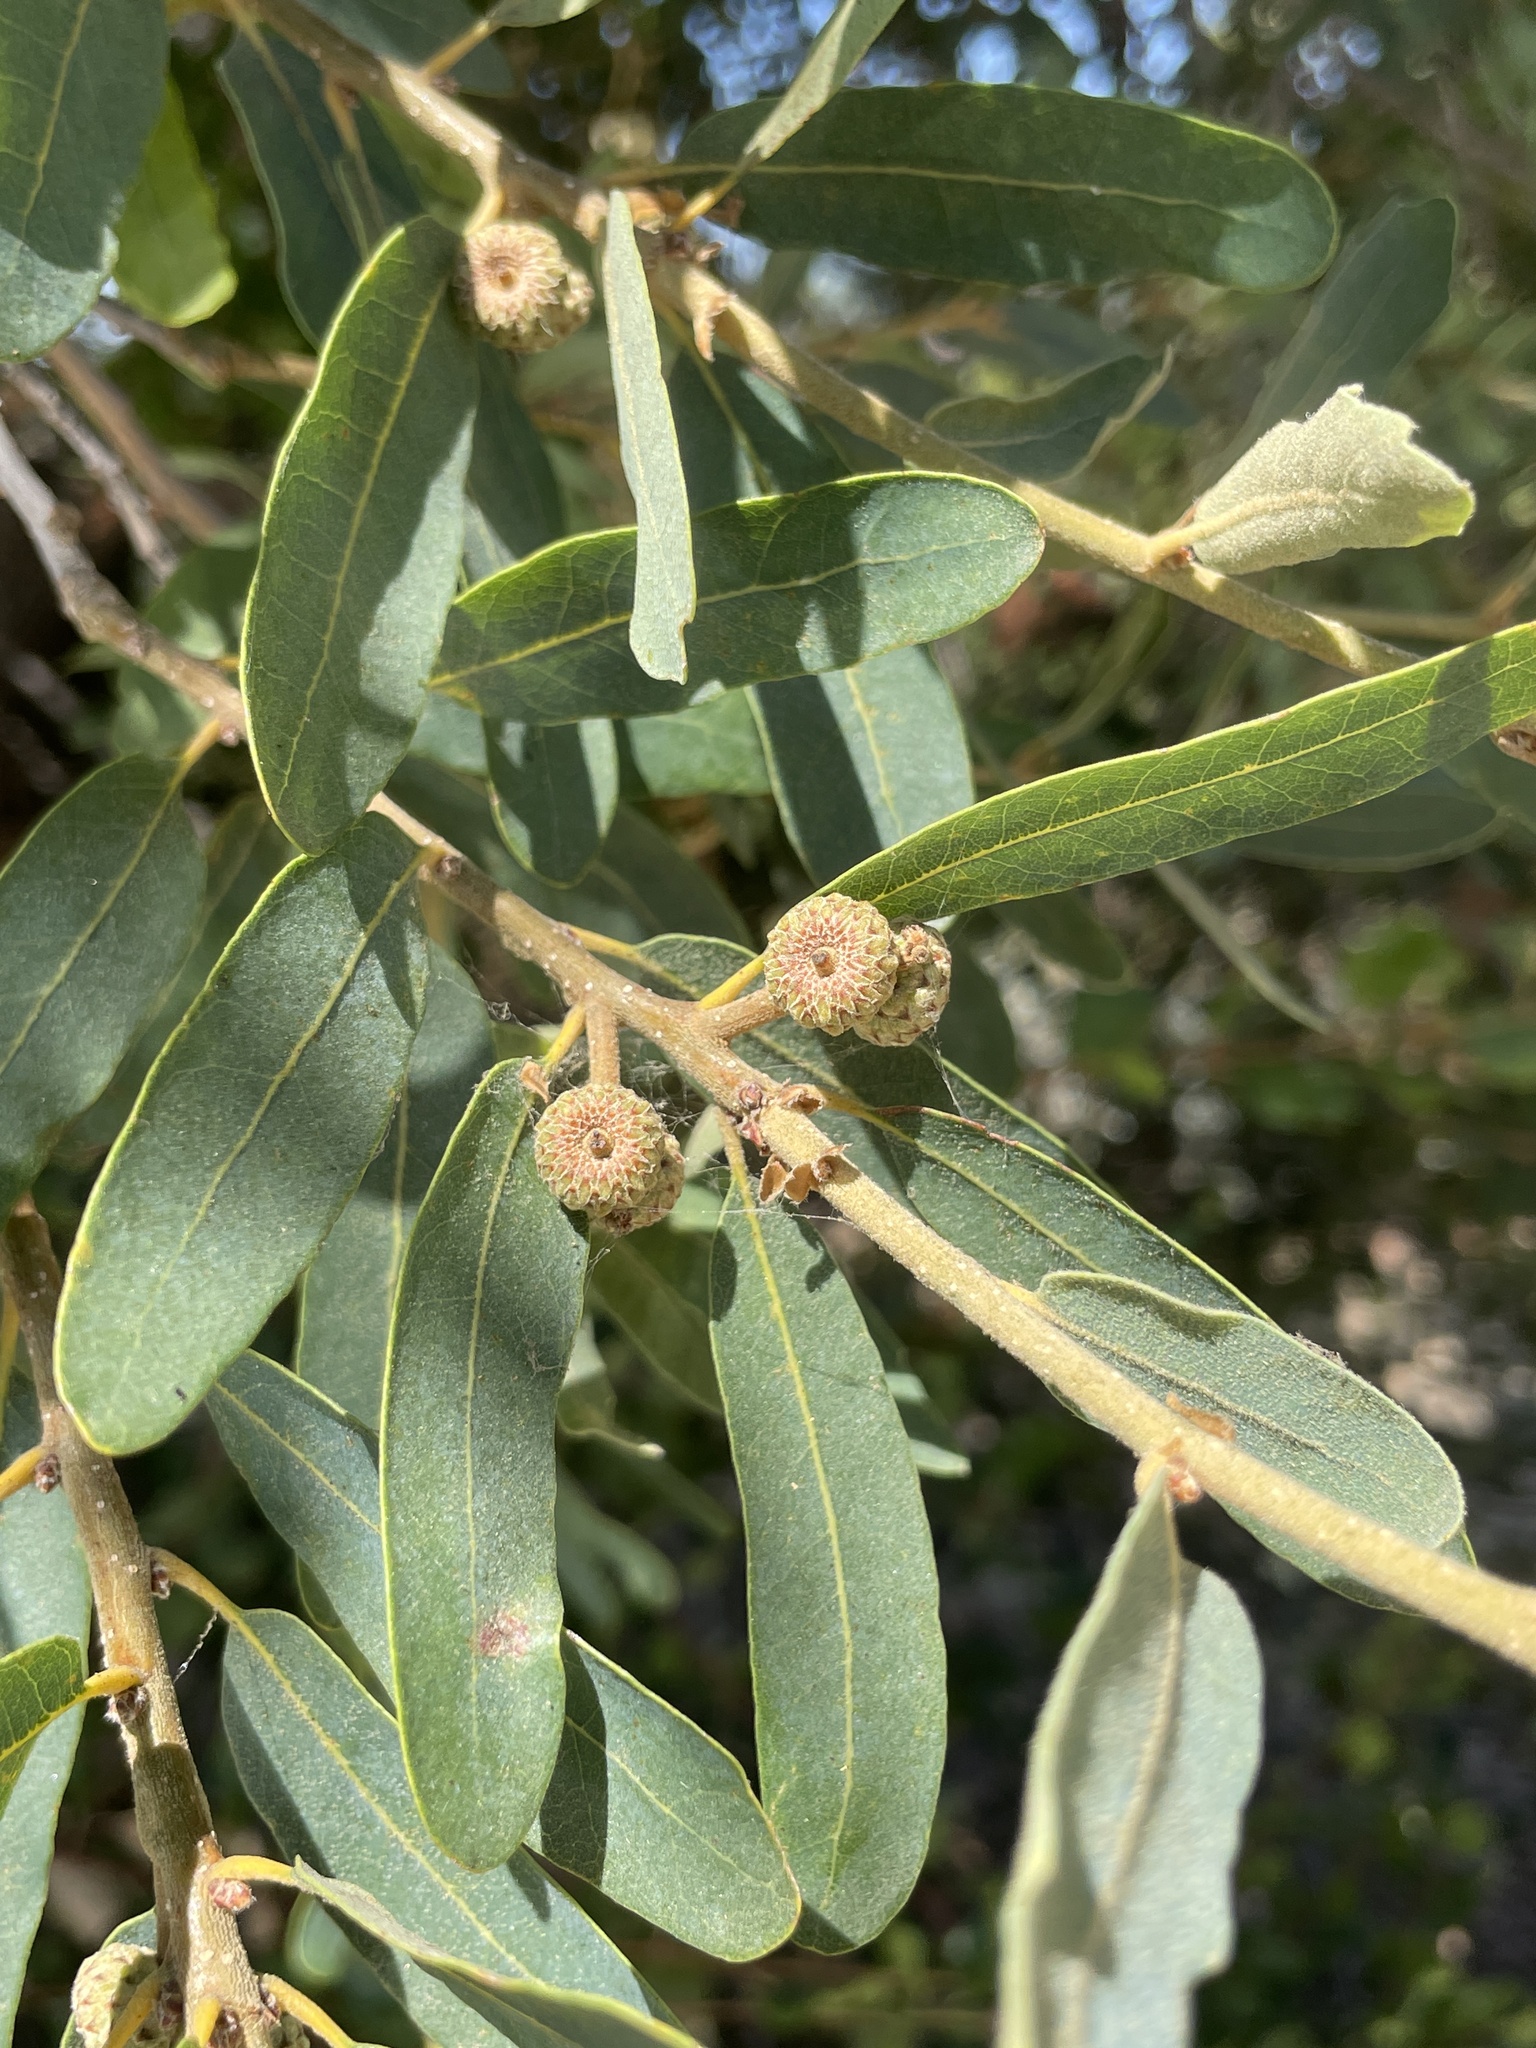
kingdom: Plantae
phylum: Tracheophyta
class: Magnoliopsida
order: Fagales
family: Fagaceae
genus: Quercus
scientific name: Quercus engelmannii
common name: Engelmann oak
